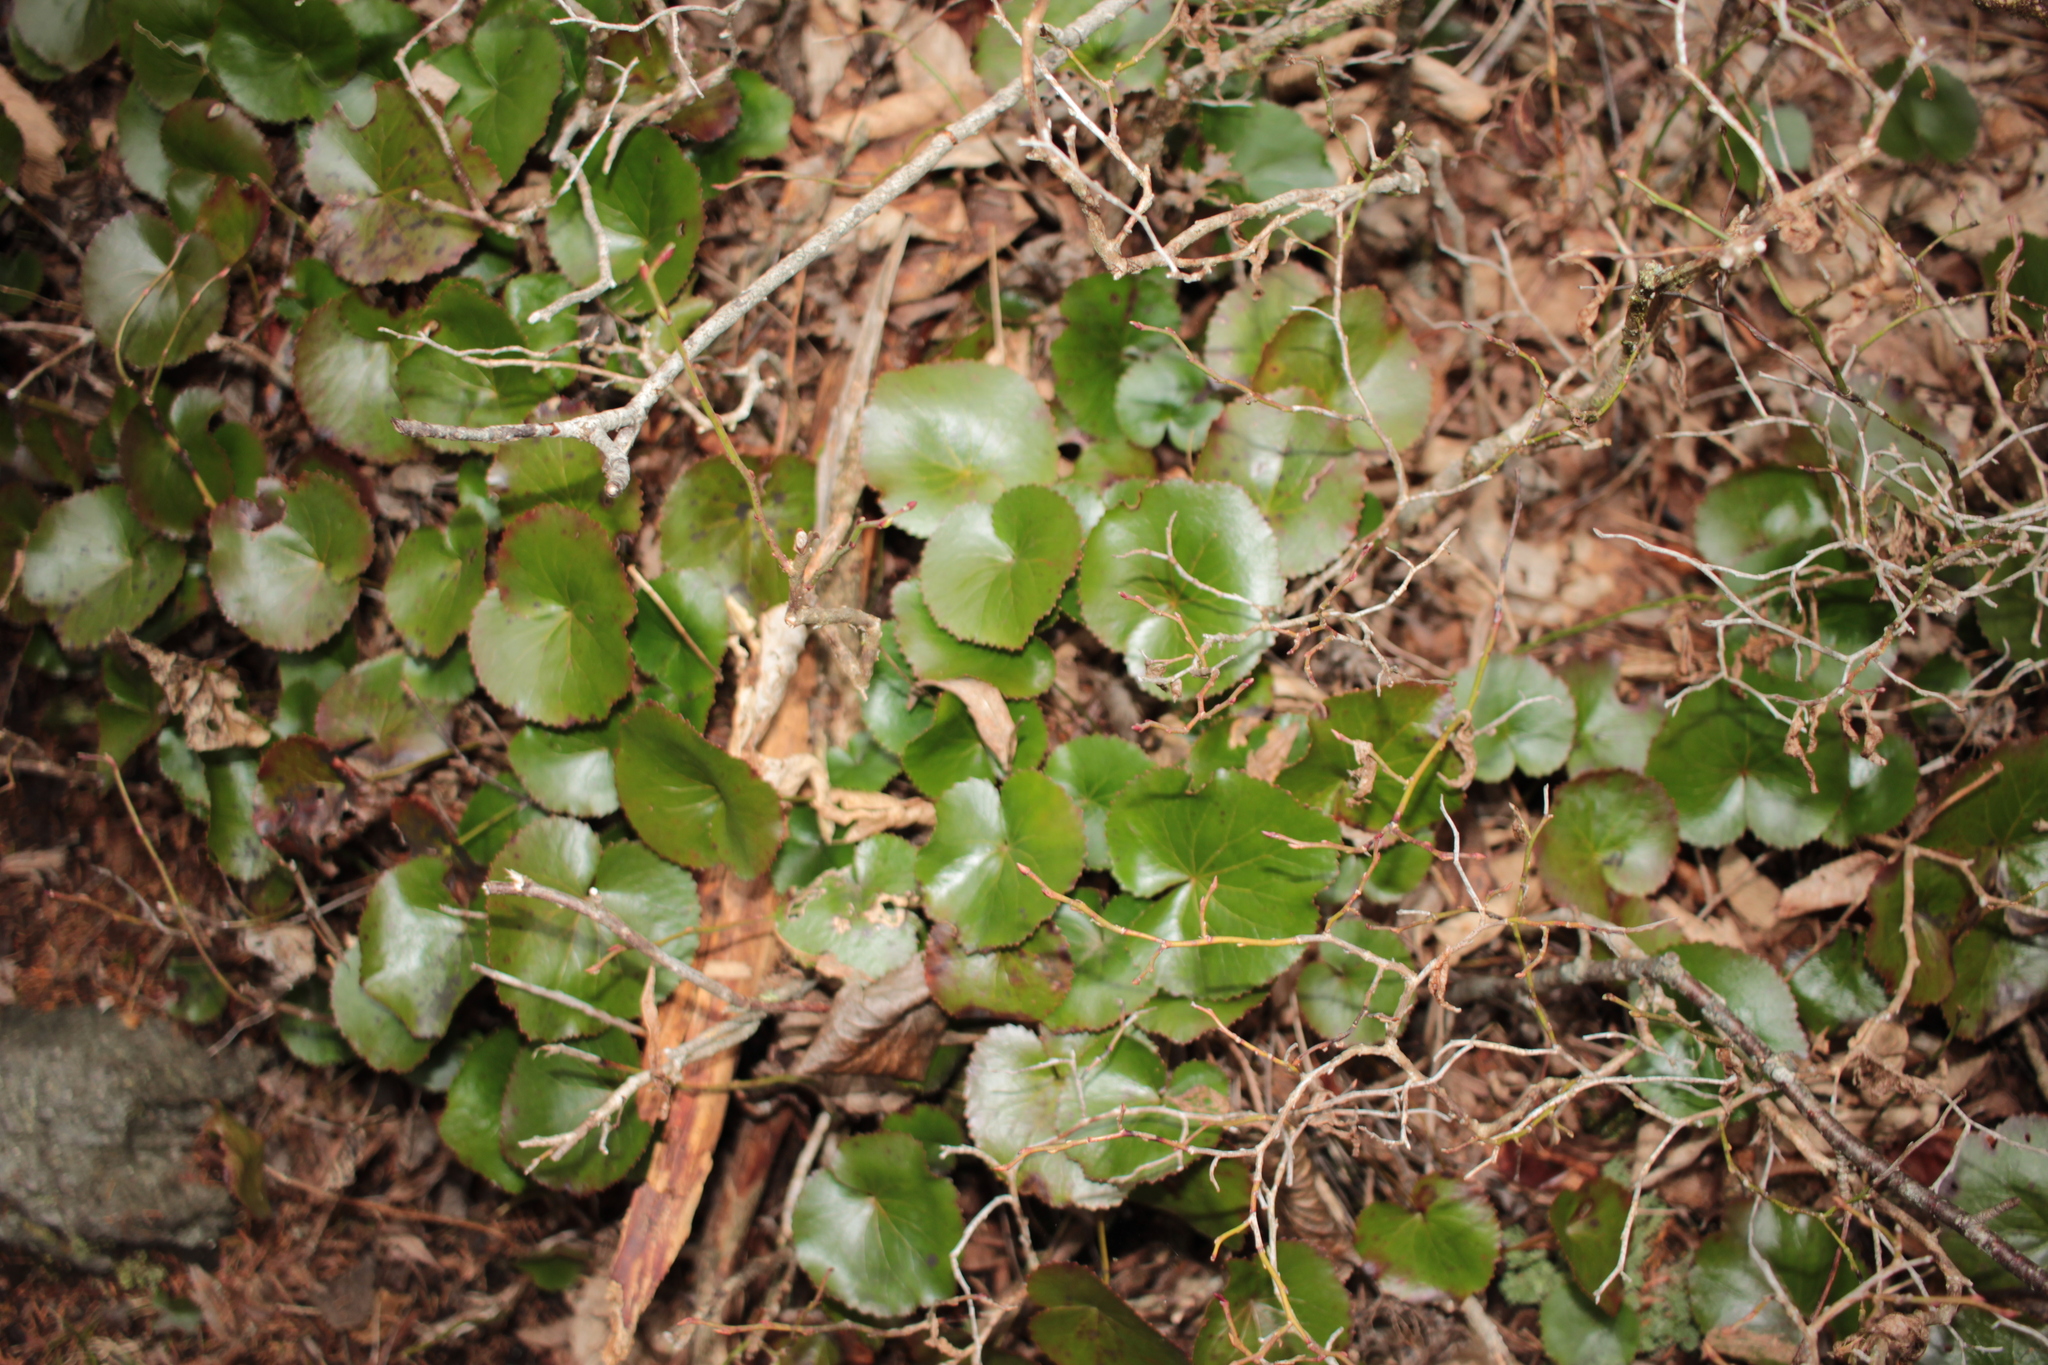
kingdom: Plantae
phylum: Tracheophyta
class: Magnoliopsida
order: Ericales
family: Diapensiaceae
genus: Galax
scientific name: Galax urceolata
